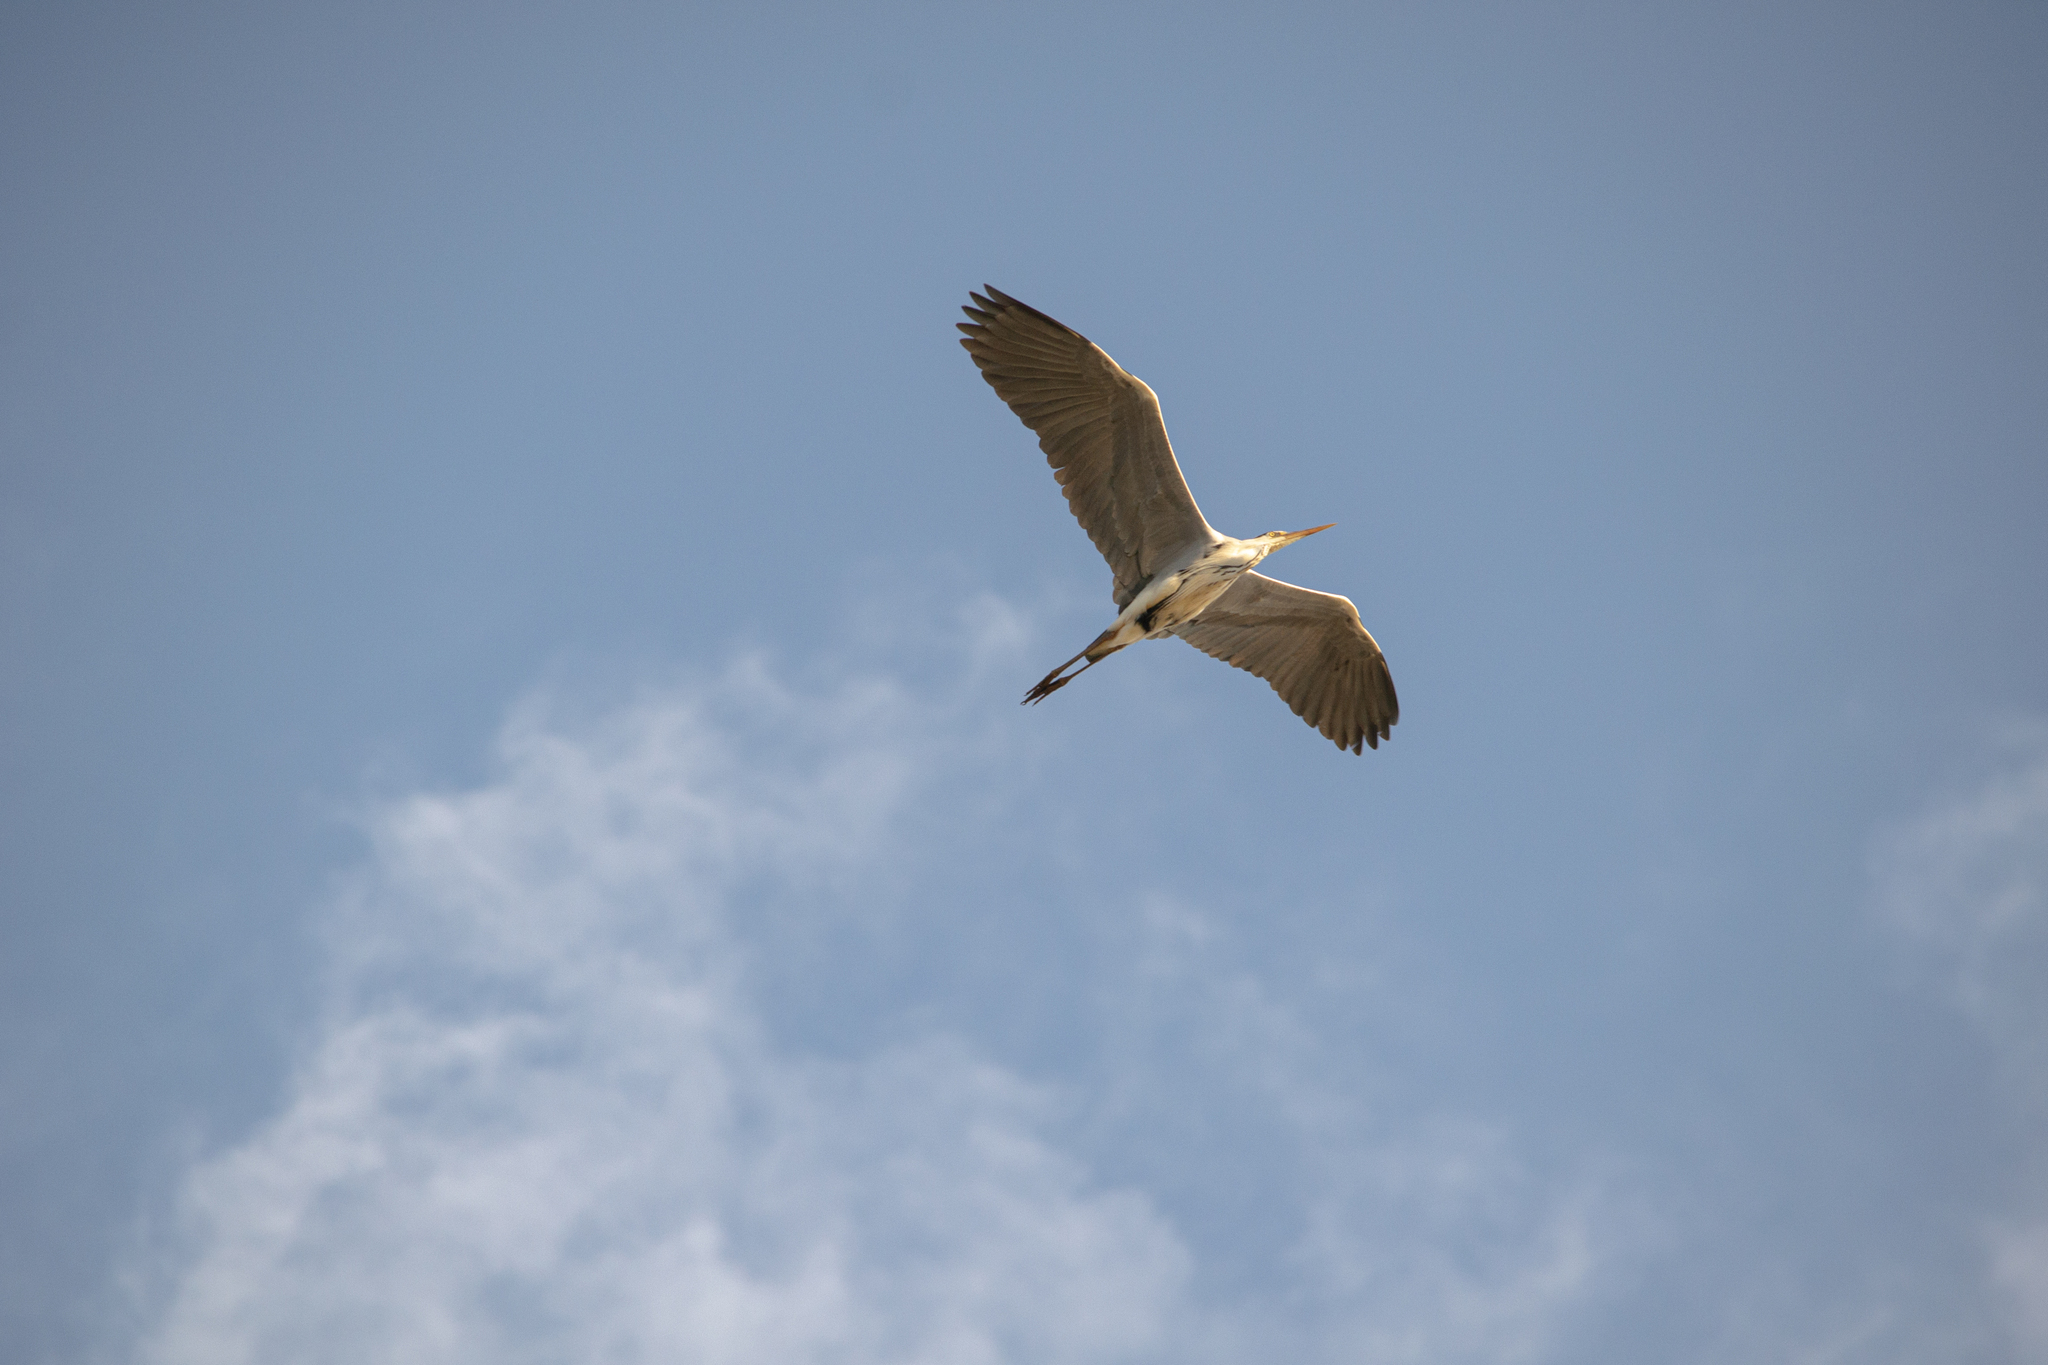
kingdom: Animalia
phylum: Chordata
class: Aves
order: Pelecaniformes
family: Ardeidae
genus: Ardea
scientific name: Ardea cinerea
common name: Grey heron
